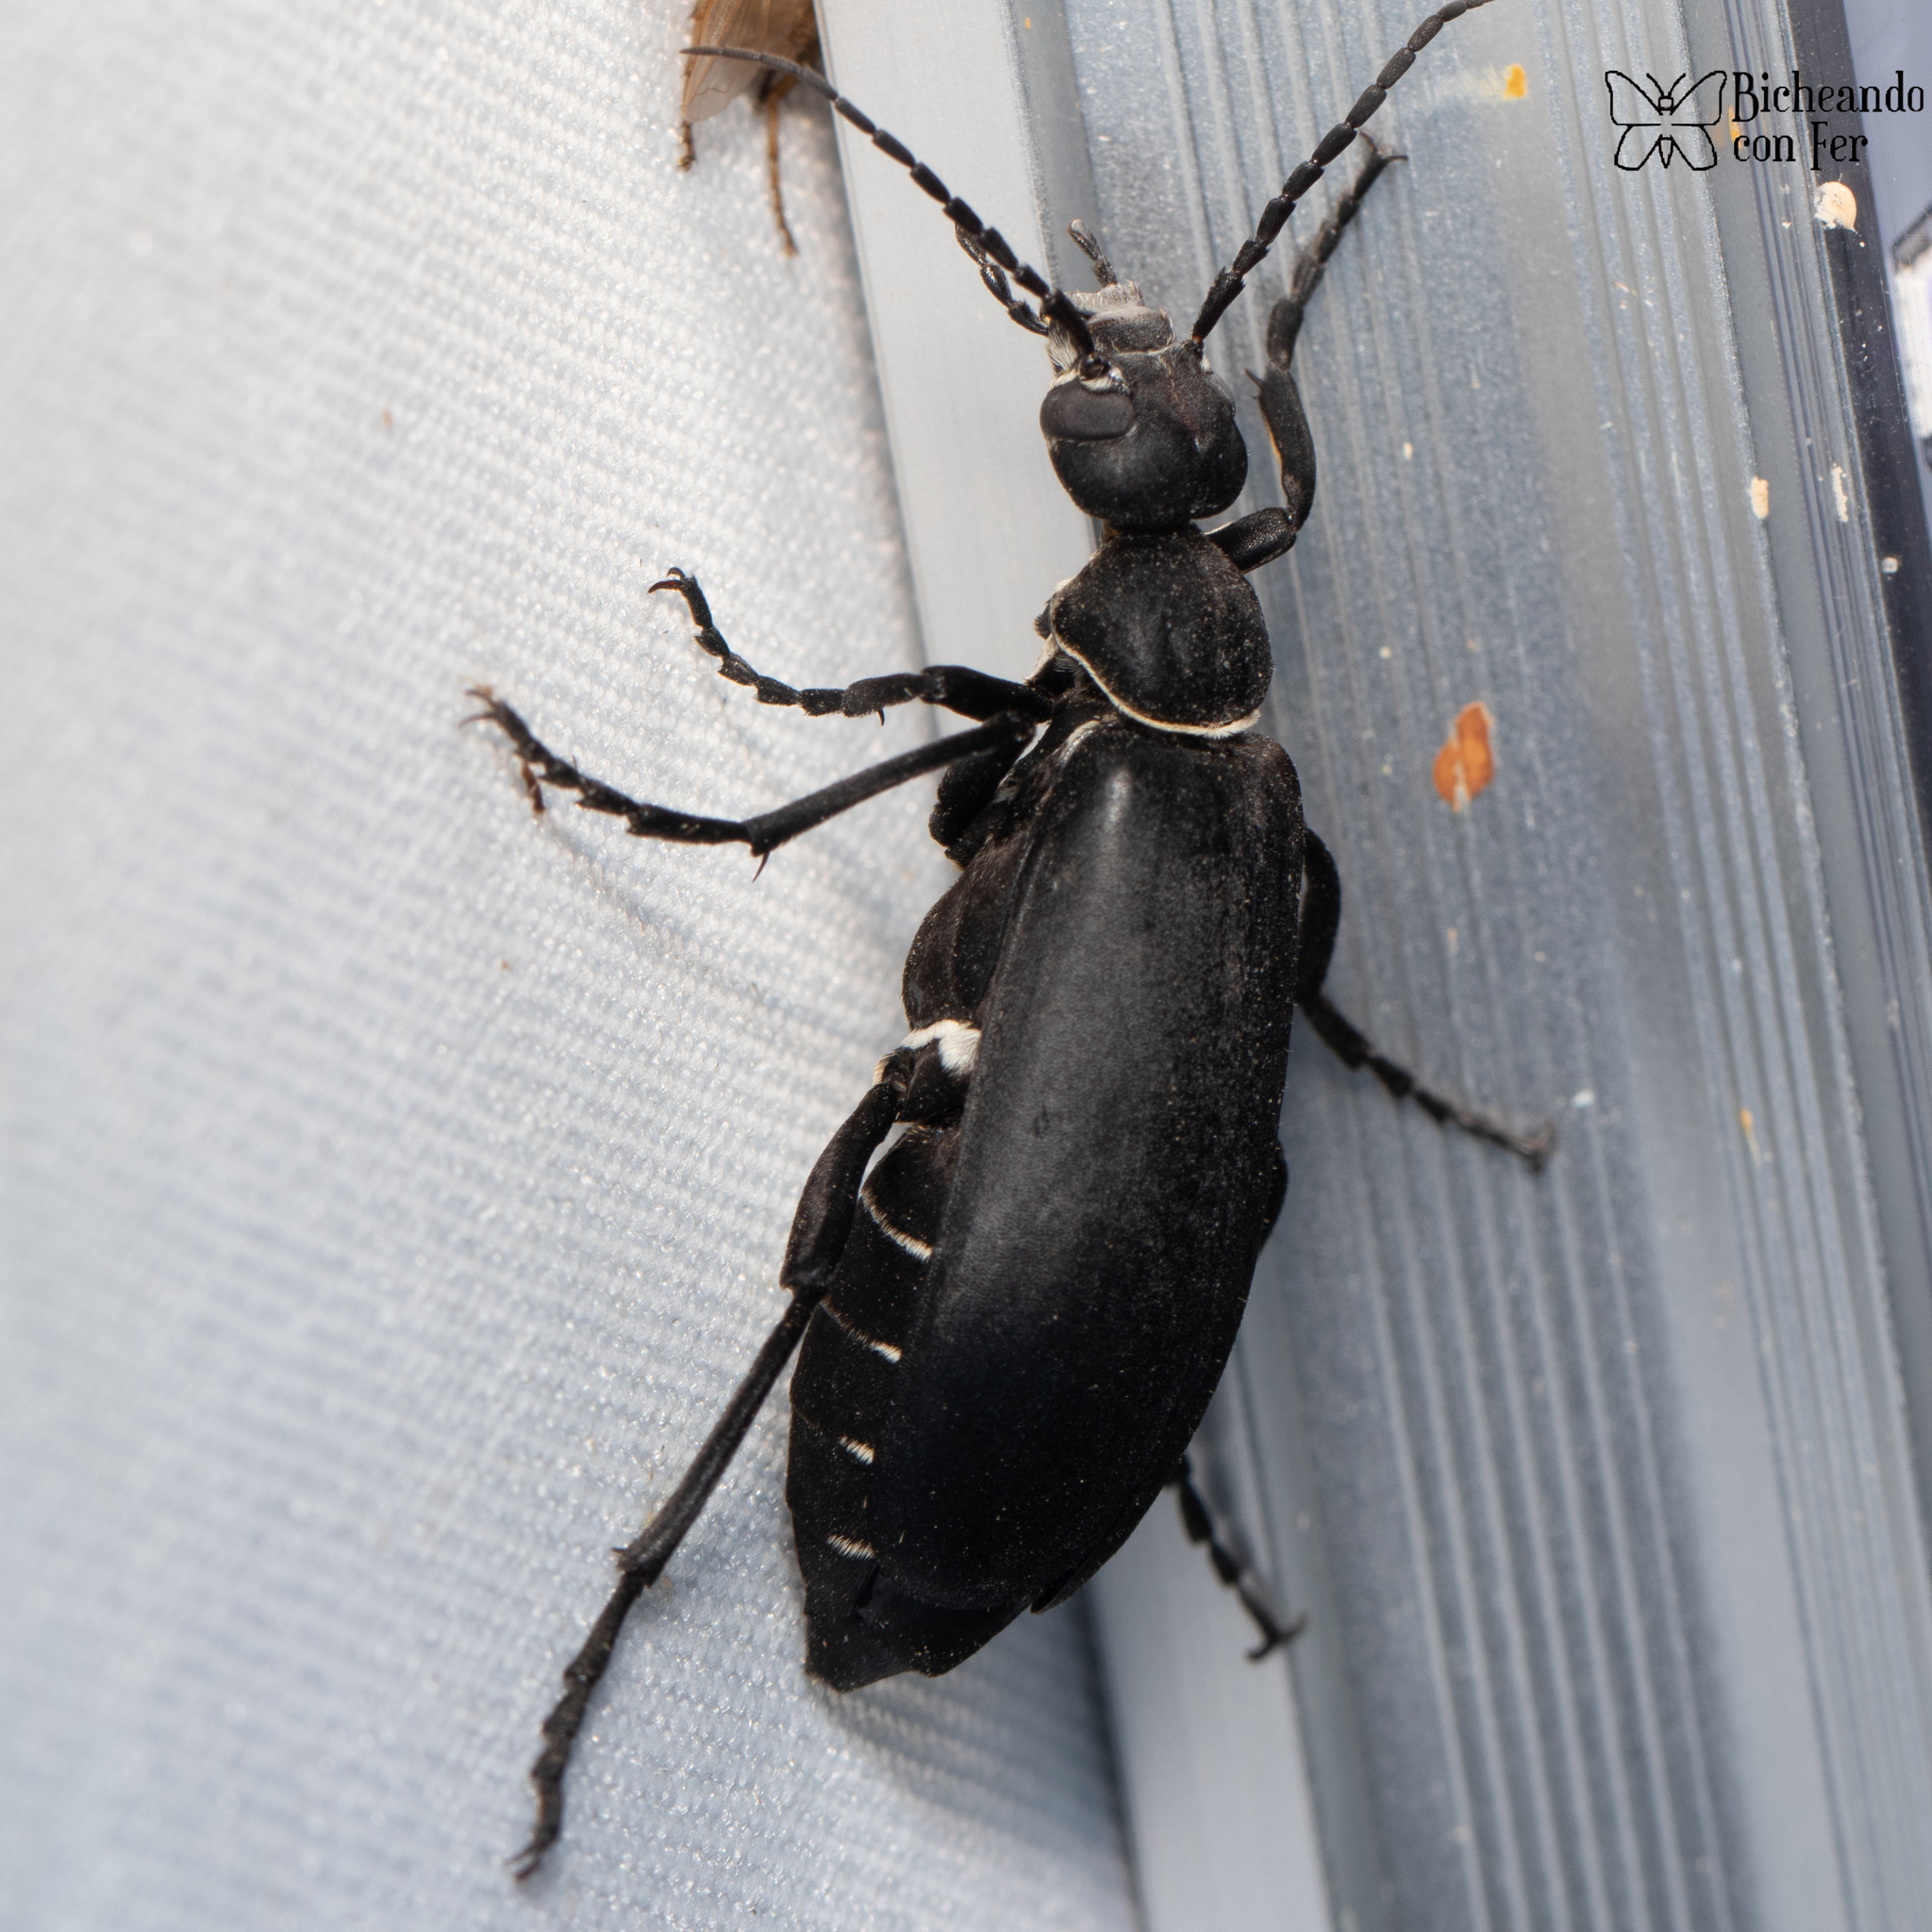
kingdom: Animalia
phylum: Arthropoda
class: Insecta
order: Coleoptera
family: Meloidae
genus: Epicauta
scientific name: Epicauta segmenta
